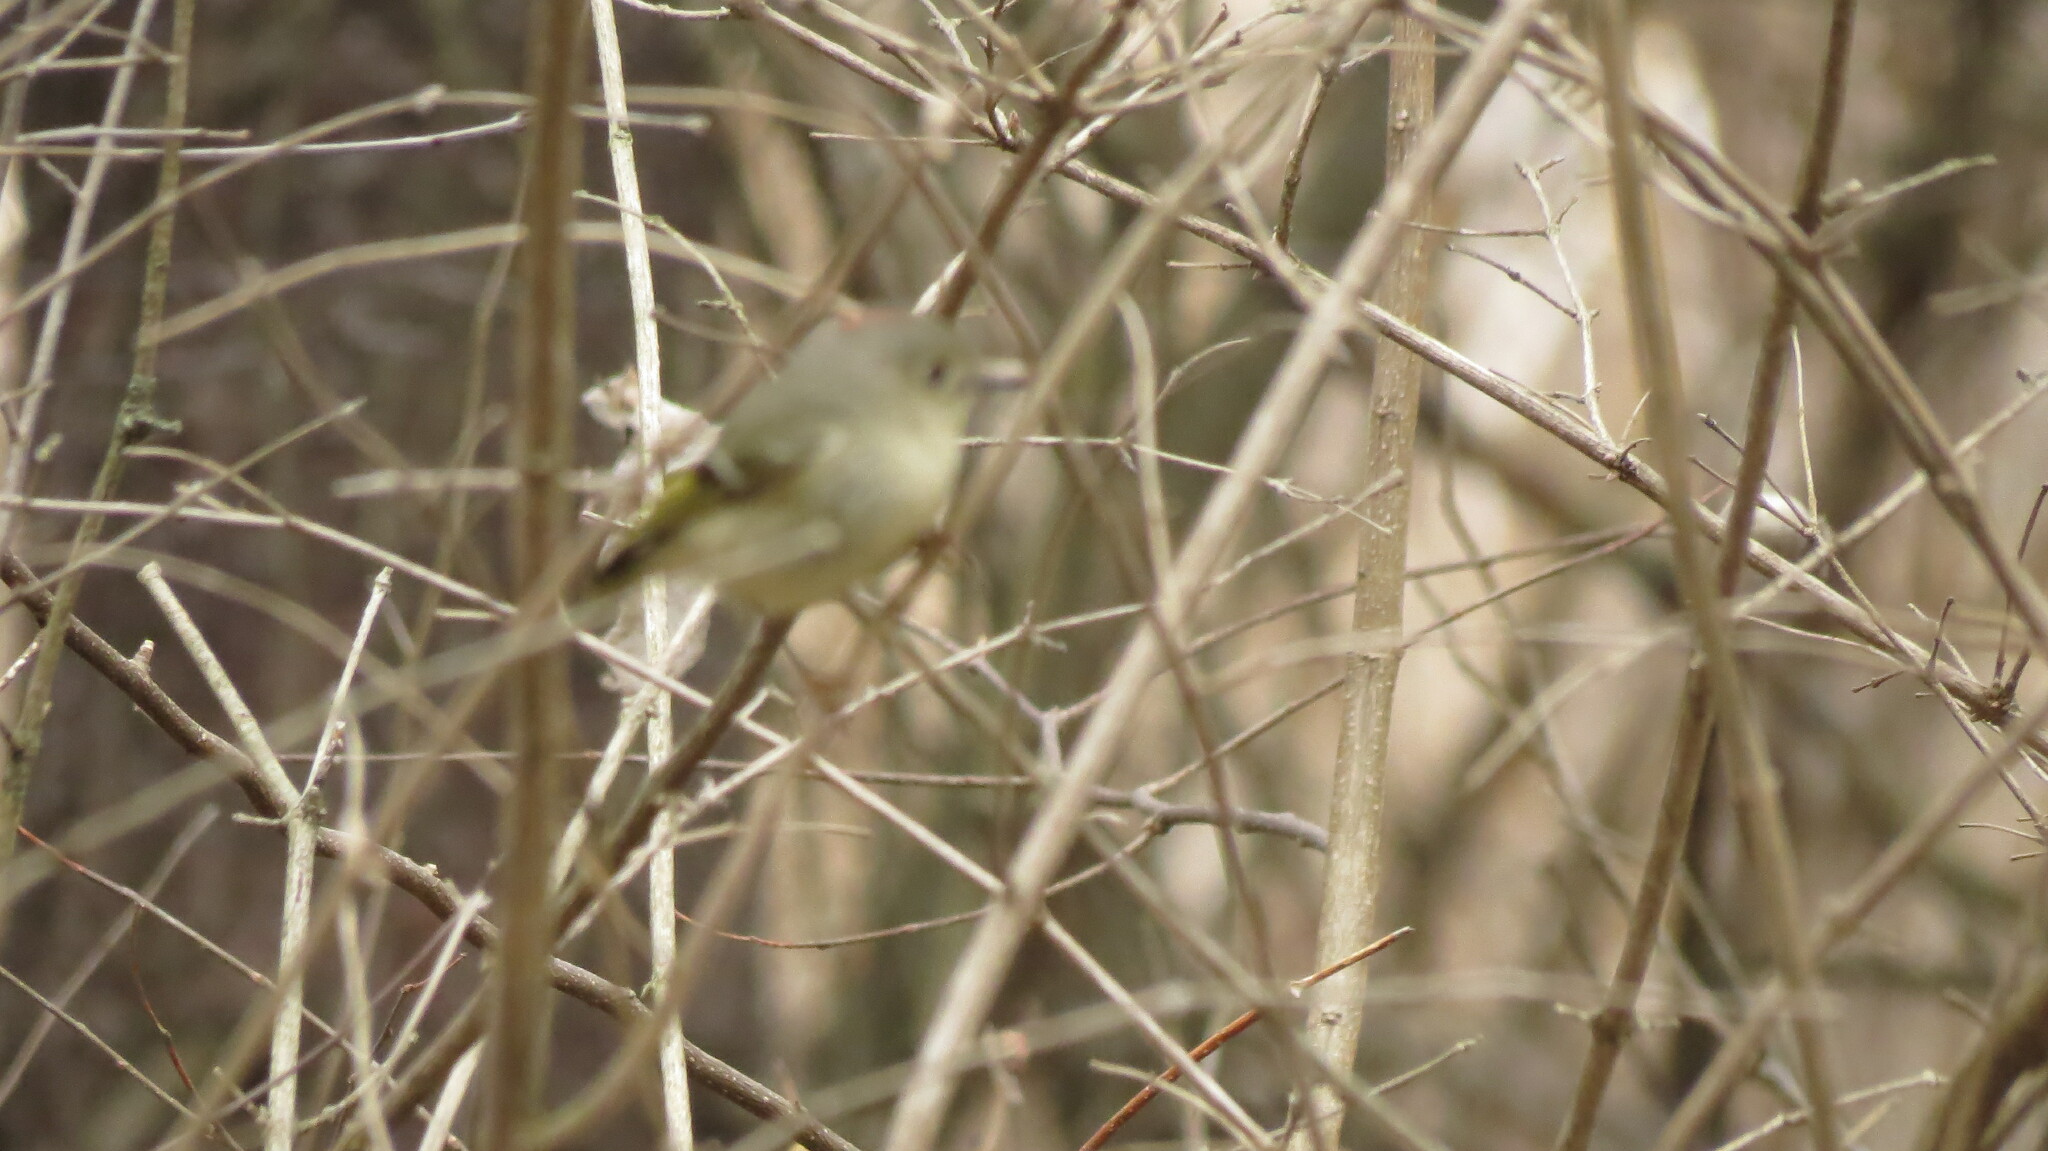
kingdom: Animalia
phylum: Chordata
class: Aves
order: Passeriformes
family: Regulidae
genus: Regulus
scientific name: Regulus calendula
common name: Ruby-crowned kinglet
